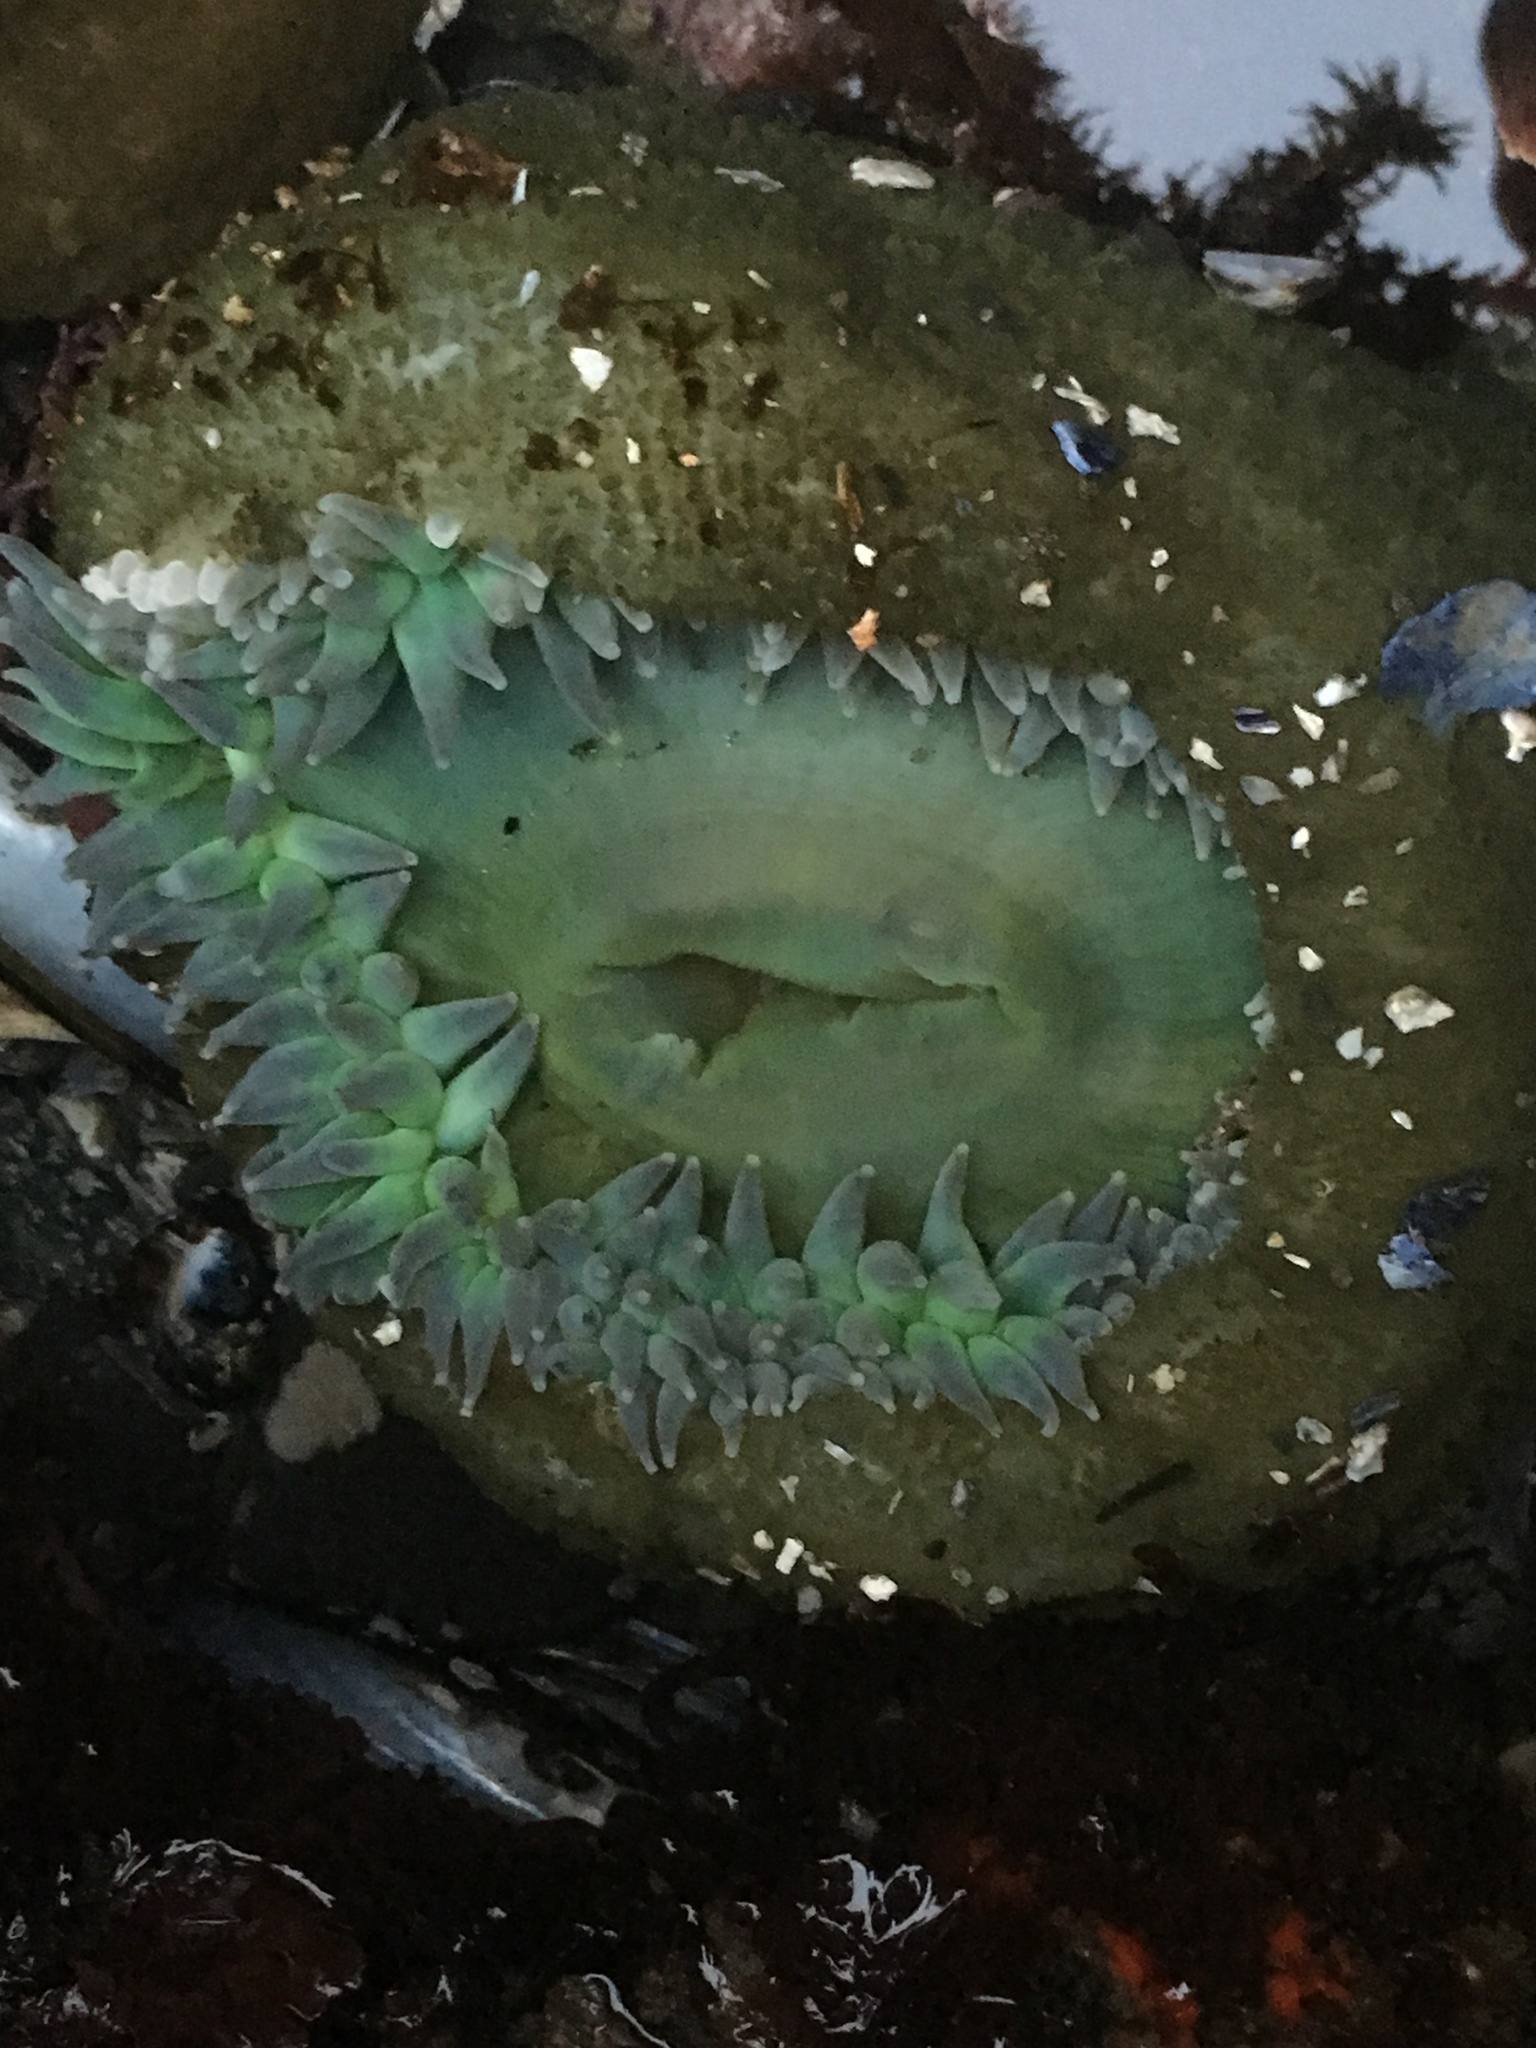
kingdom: Animalia
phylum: Cnidaria
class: Anthozoa
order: Actiniaria
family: Actiniidae
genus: Anthopleura
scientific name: Anthopleura xanthogrammica
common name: Giant green anemone
